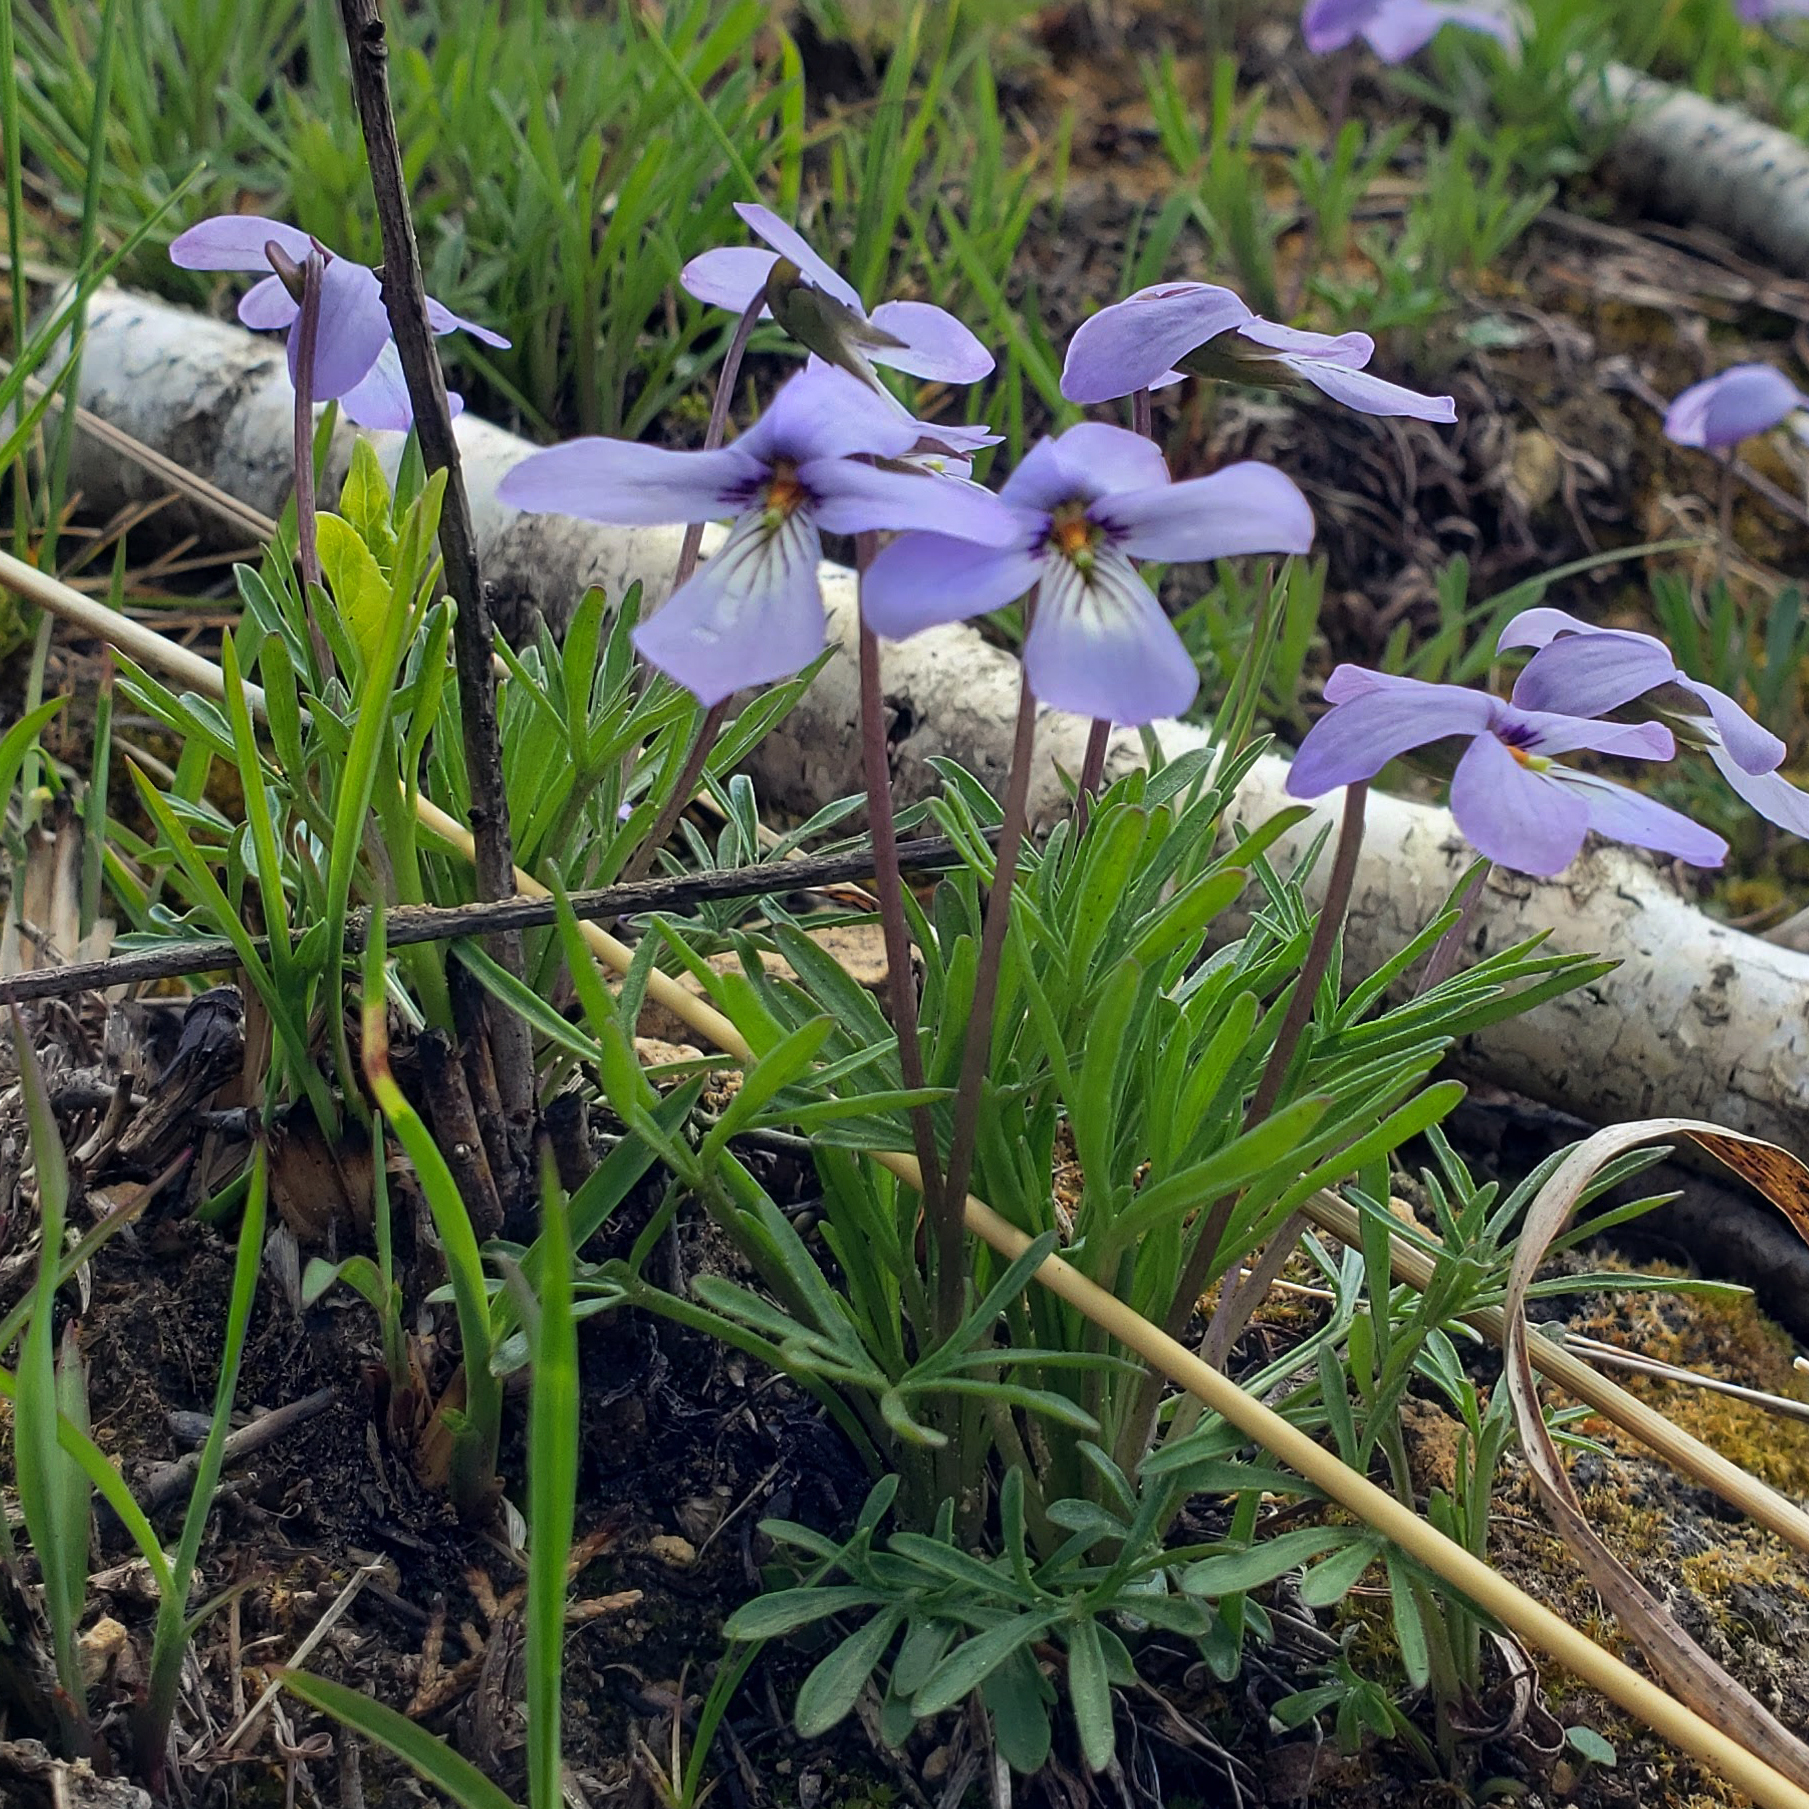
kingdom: Plantae
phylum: Tracheophyta
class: Magnoliopsida
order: Malpighiales
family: Violaceae
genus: Viola
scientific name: Viola pedata
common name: Pansy violet
